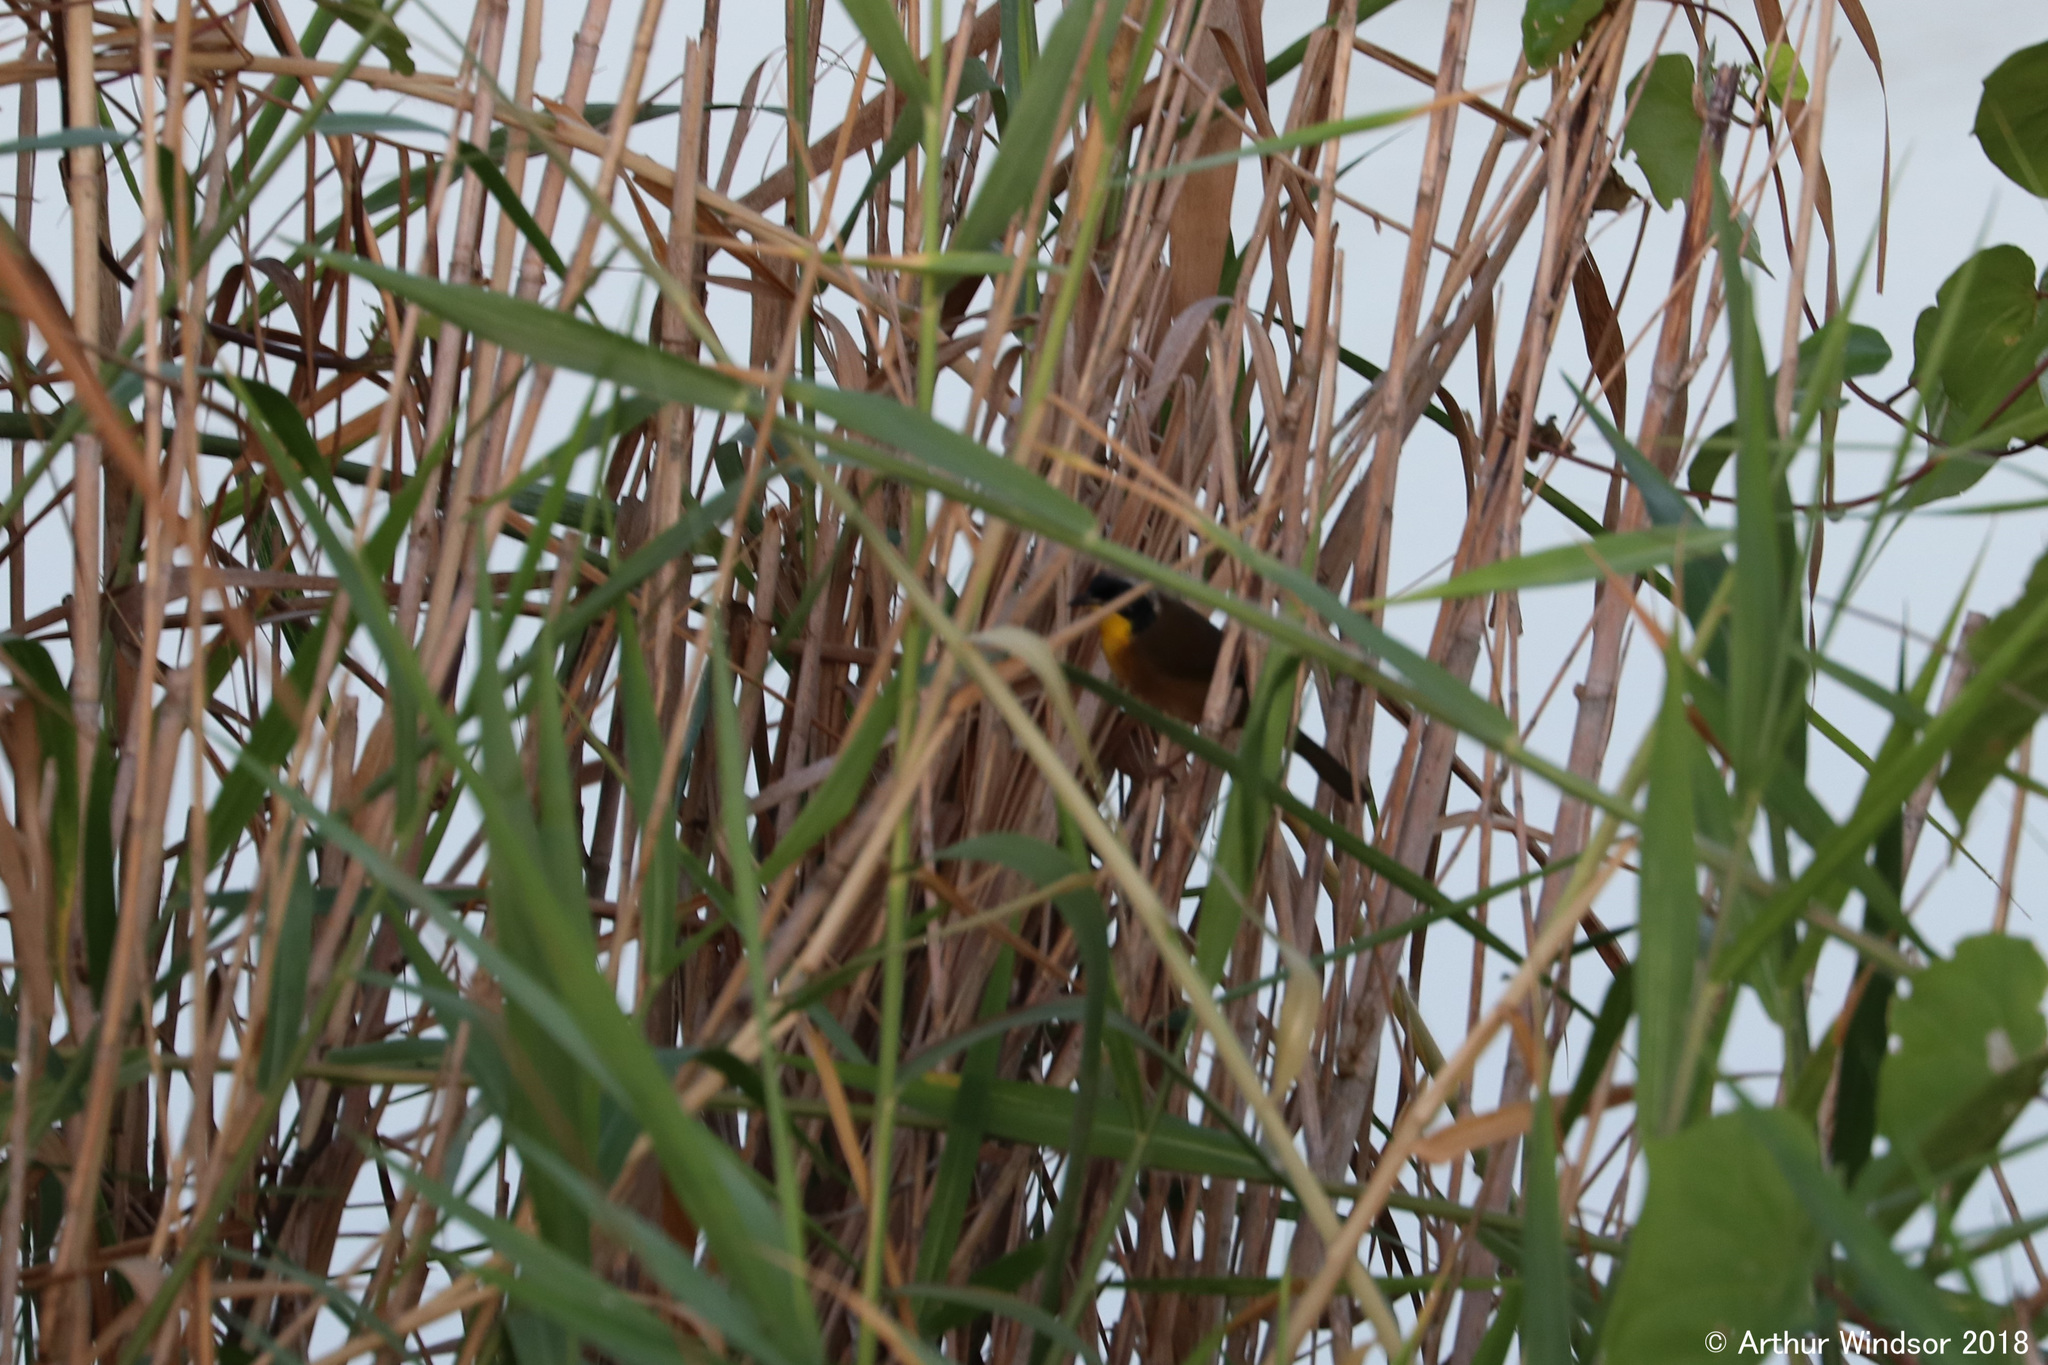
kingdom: Animalia
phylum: Chordata
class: Aves
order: Passeriformes
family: Parulidae
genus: Geothlypis
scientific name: Geothlypis trichas
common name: Common yellowthroat
